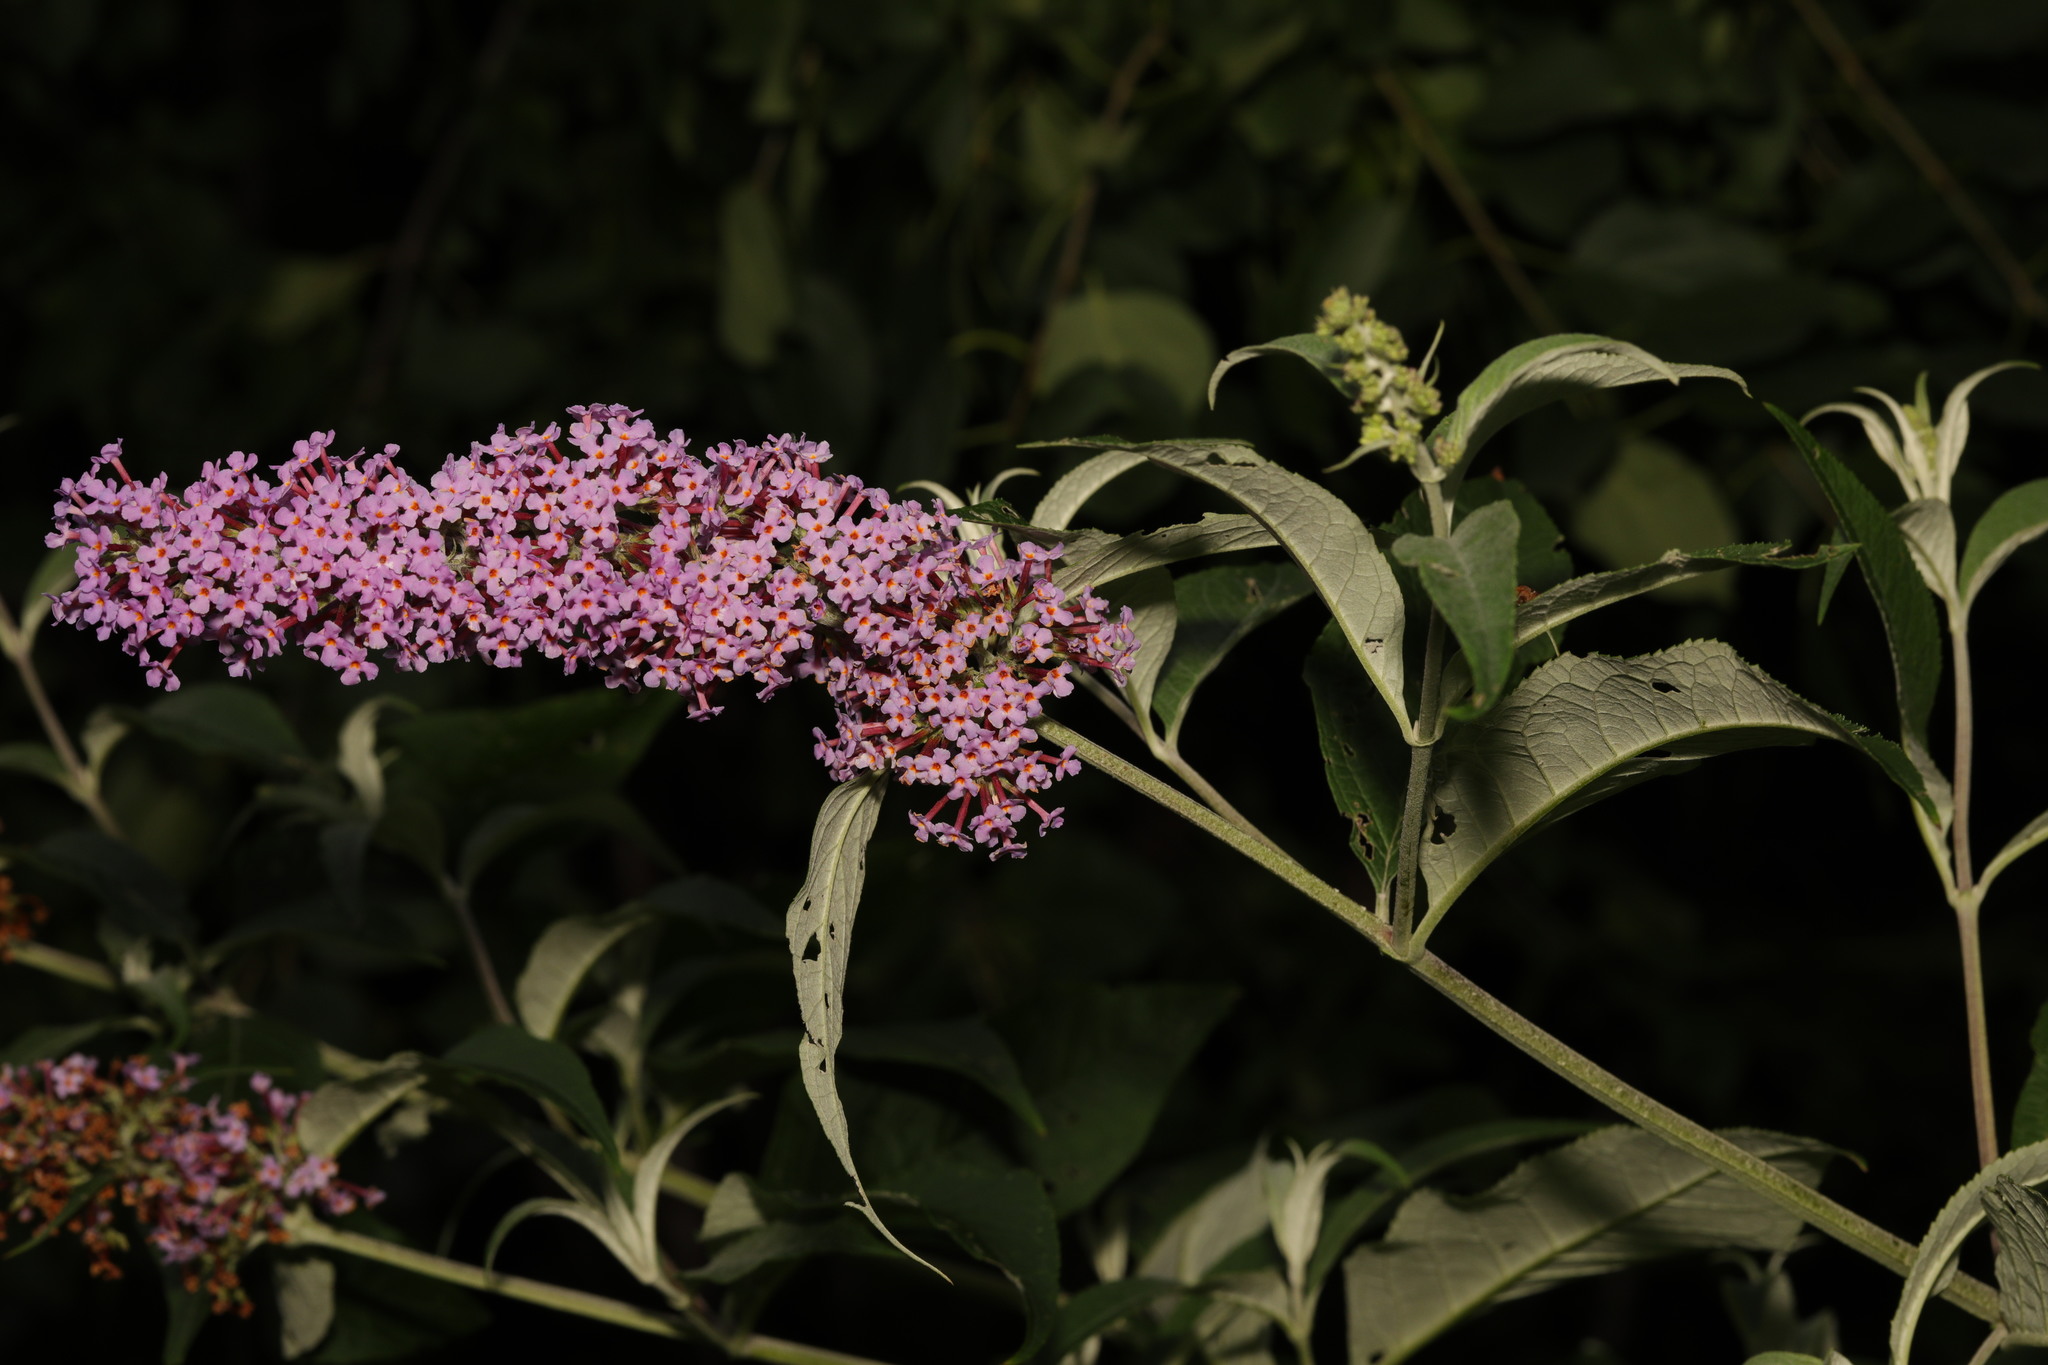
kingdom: Plantae
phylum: Tracheophyta
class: Magnoliopsida
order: Lamiales
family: Scrophulariaceae
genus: Buddleja
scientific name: Buddleja davidii
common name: Butterfly-bush
